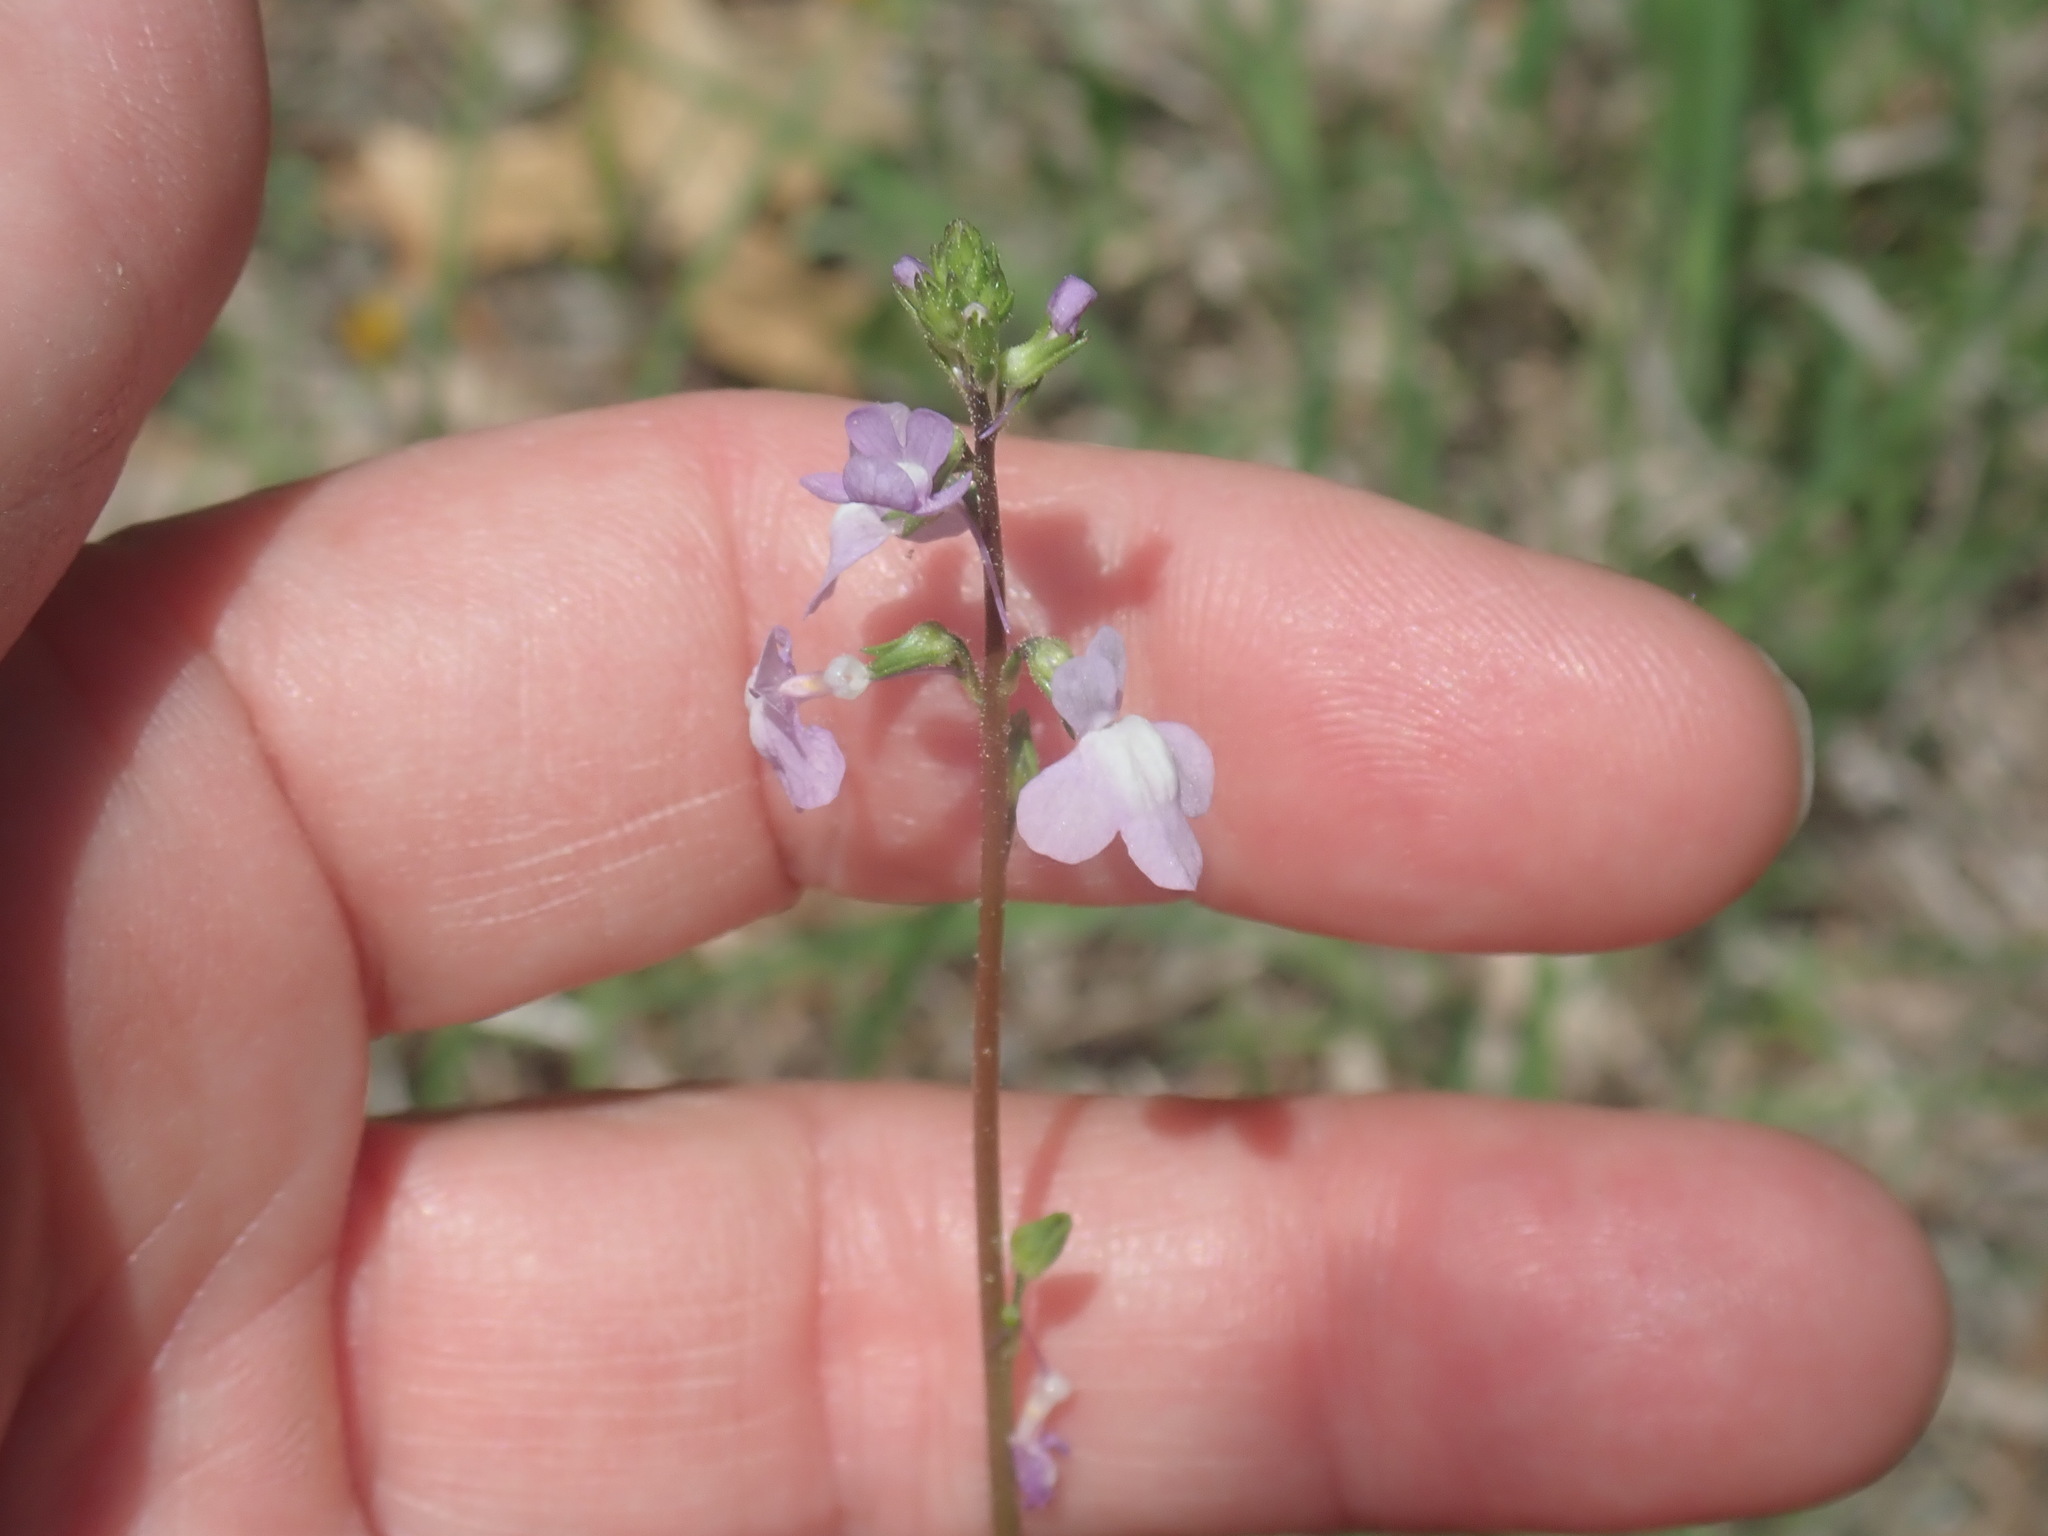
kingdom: Plantae
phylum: Tracheophyta
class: Magnoliopsida
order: Lamiales
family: Plantaginaceae
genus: Nuttallanthus
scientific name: Nuttallanthus canadensis
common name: Blue toadflax
